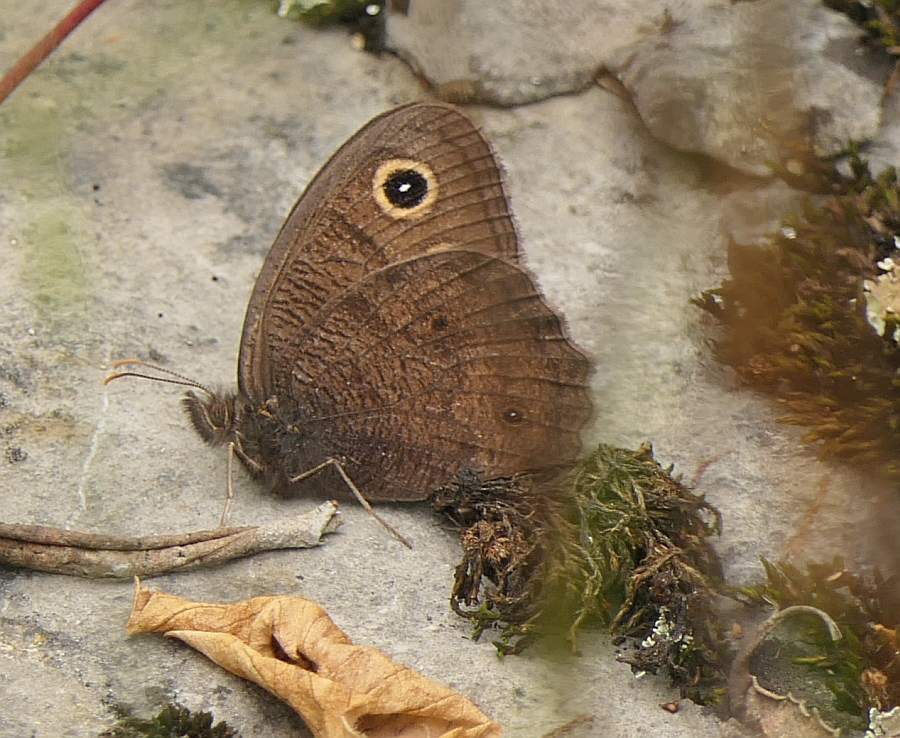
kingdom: Animalia
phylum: Arthropoda
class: Insecta
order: Lepidoptera
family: Nymphalidae
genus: Cercyonis
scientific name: Cercyonis pegala
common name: Common wood-nymph
